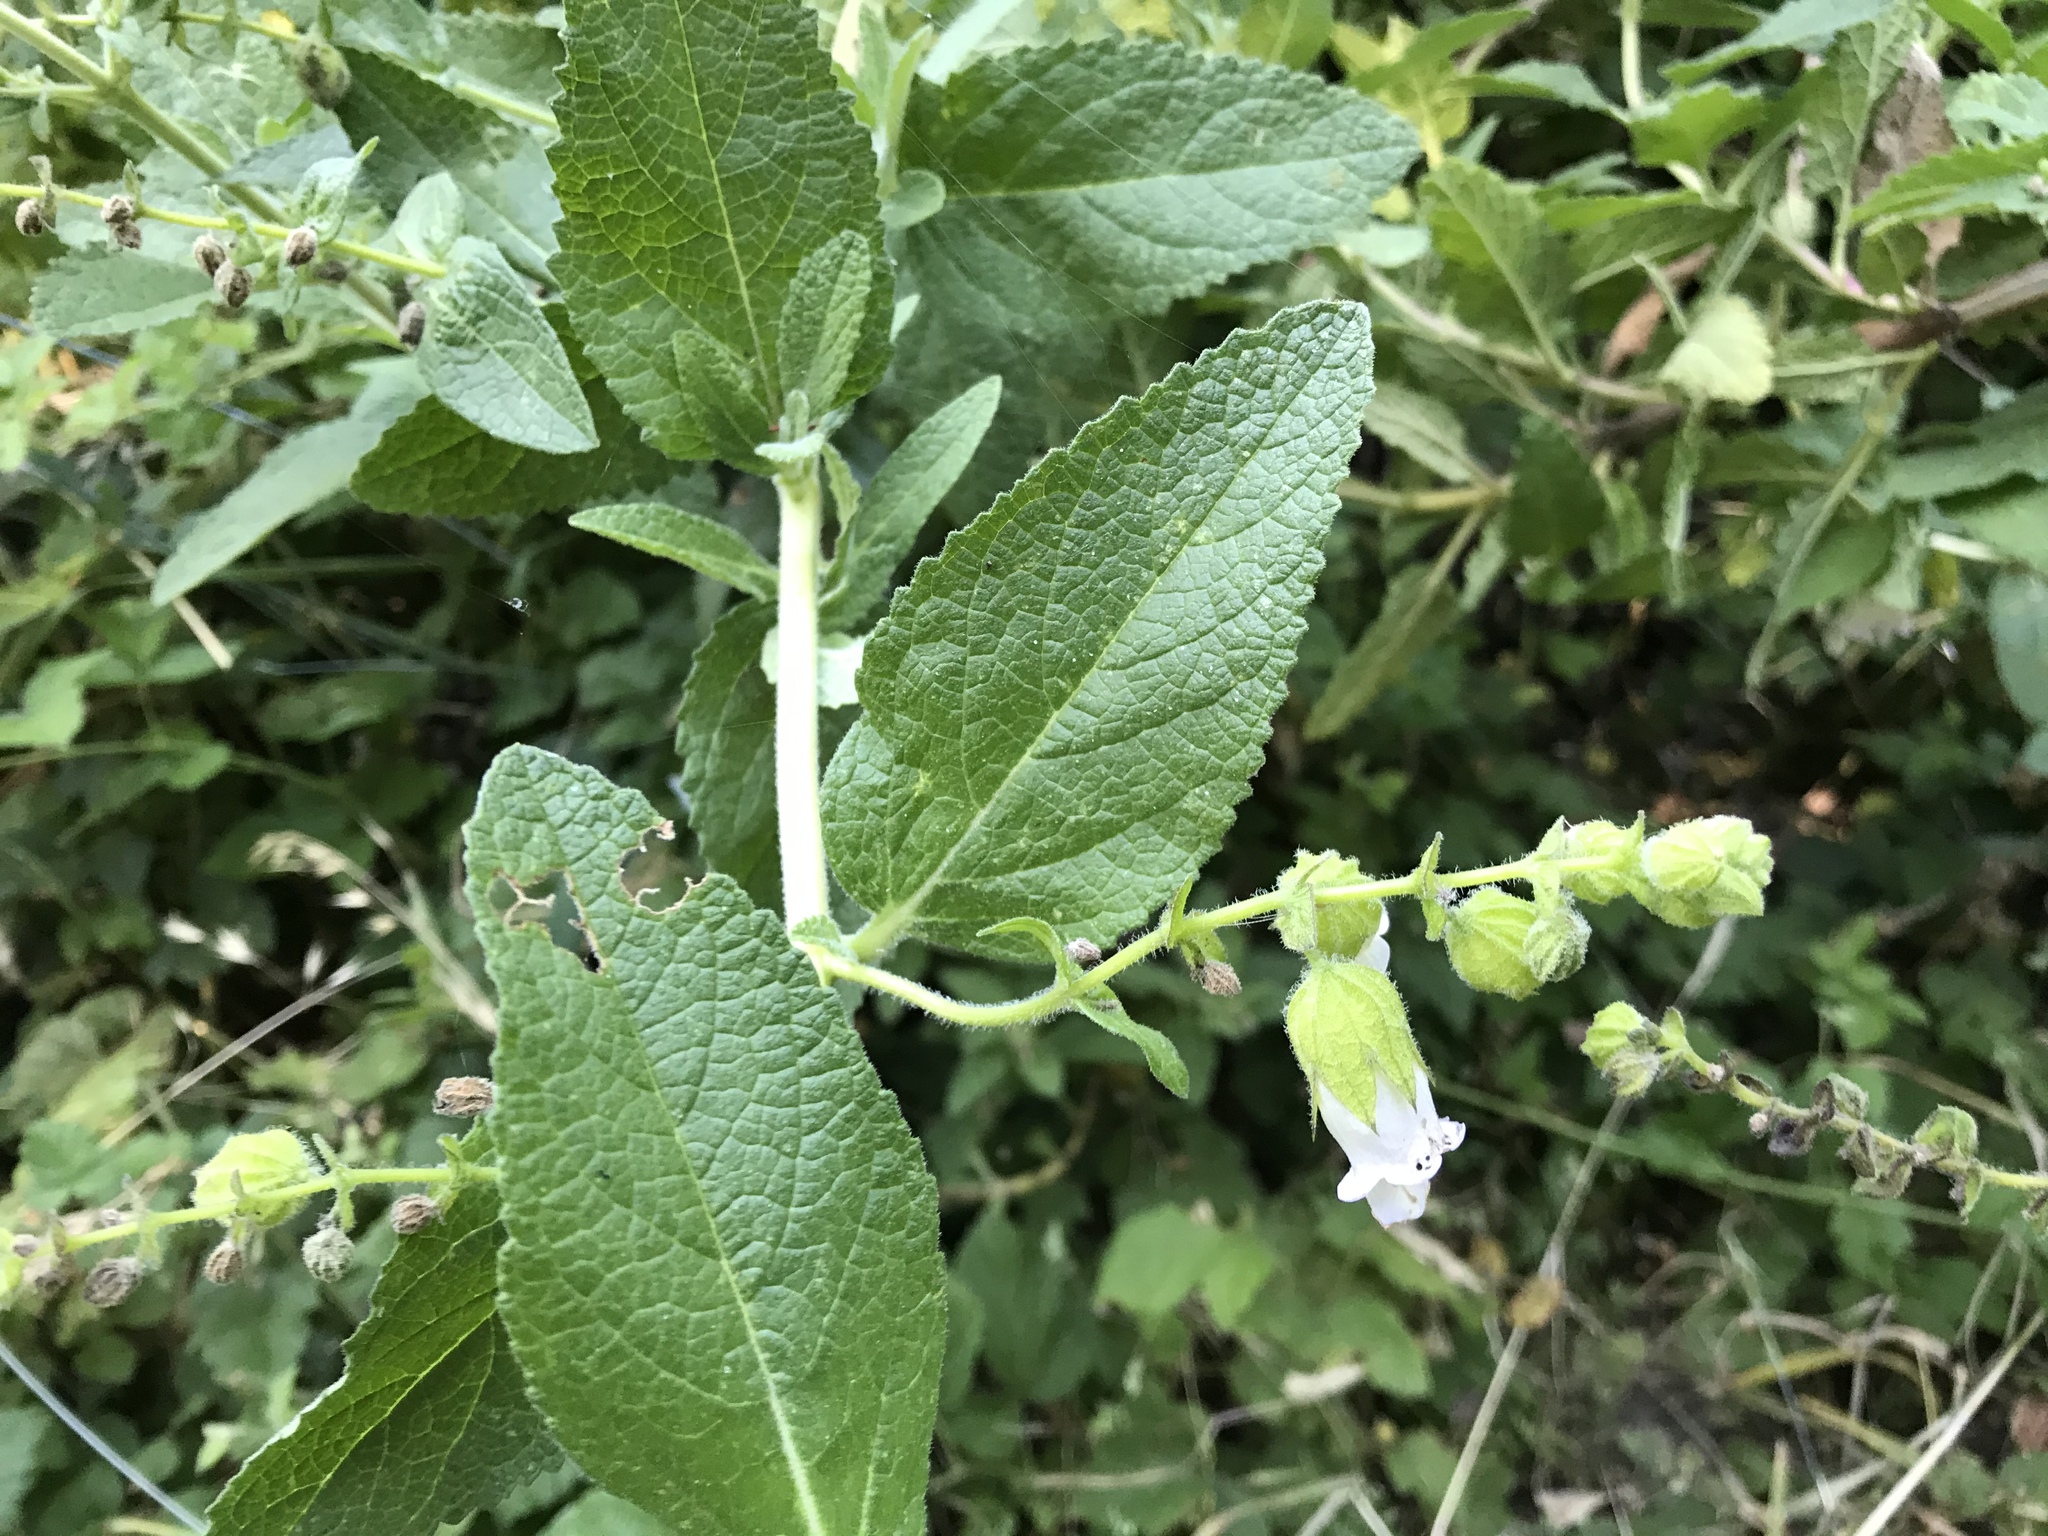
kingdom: Plantae
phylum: Tracheophyta
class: Magnoliopsida
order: Lamiales
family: Lamiaceae
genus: Lepechinia
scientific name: Lepechinia calycina
